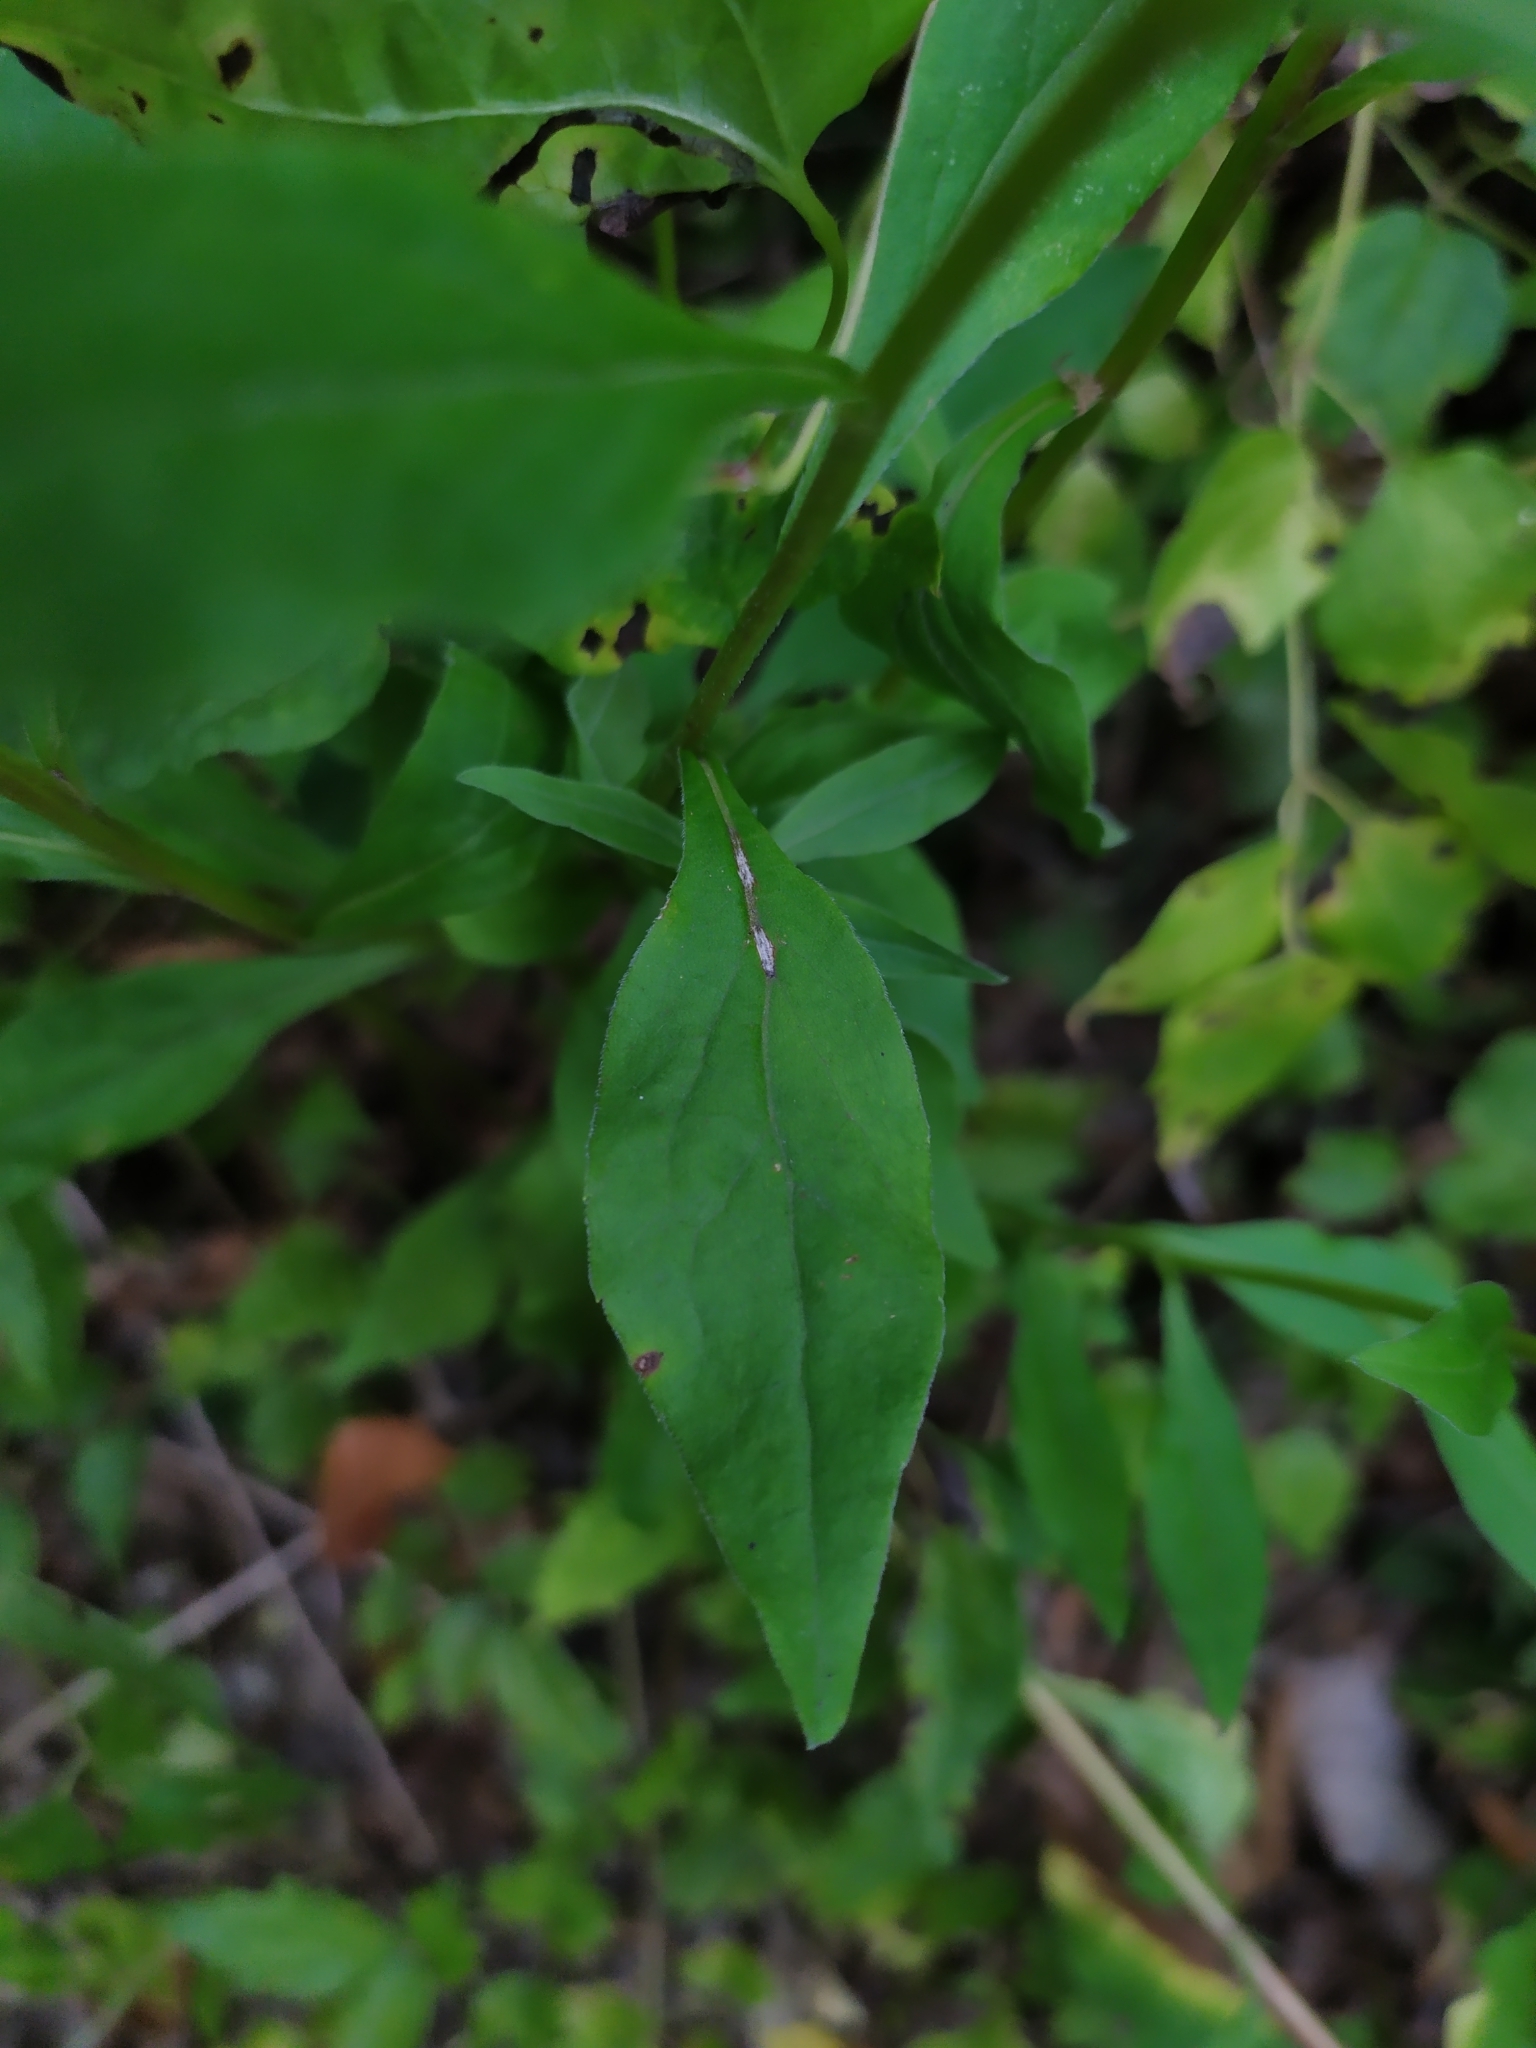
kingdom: Plantae
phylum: Tracheophyta
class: Magnoliopsida
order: Asterales
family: Asteraceae
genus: Solidago
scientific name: Solidago virgaurea
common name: Goldenrod
